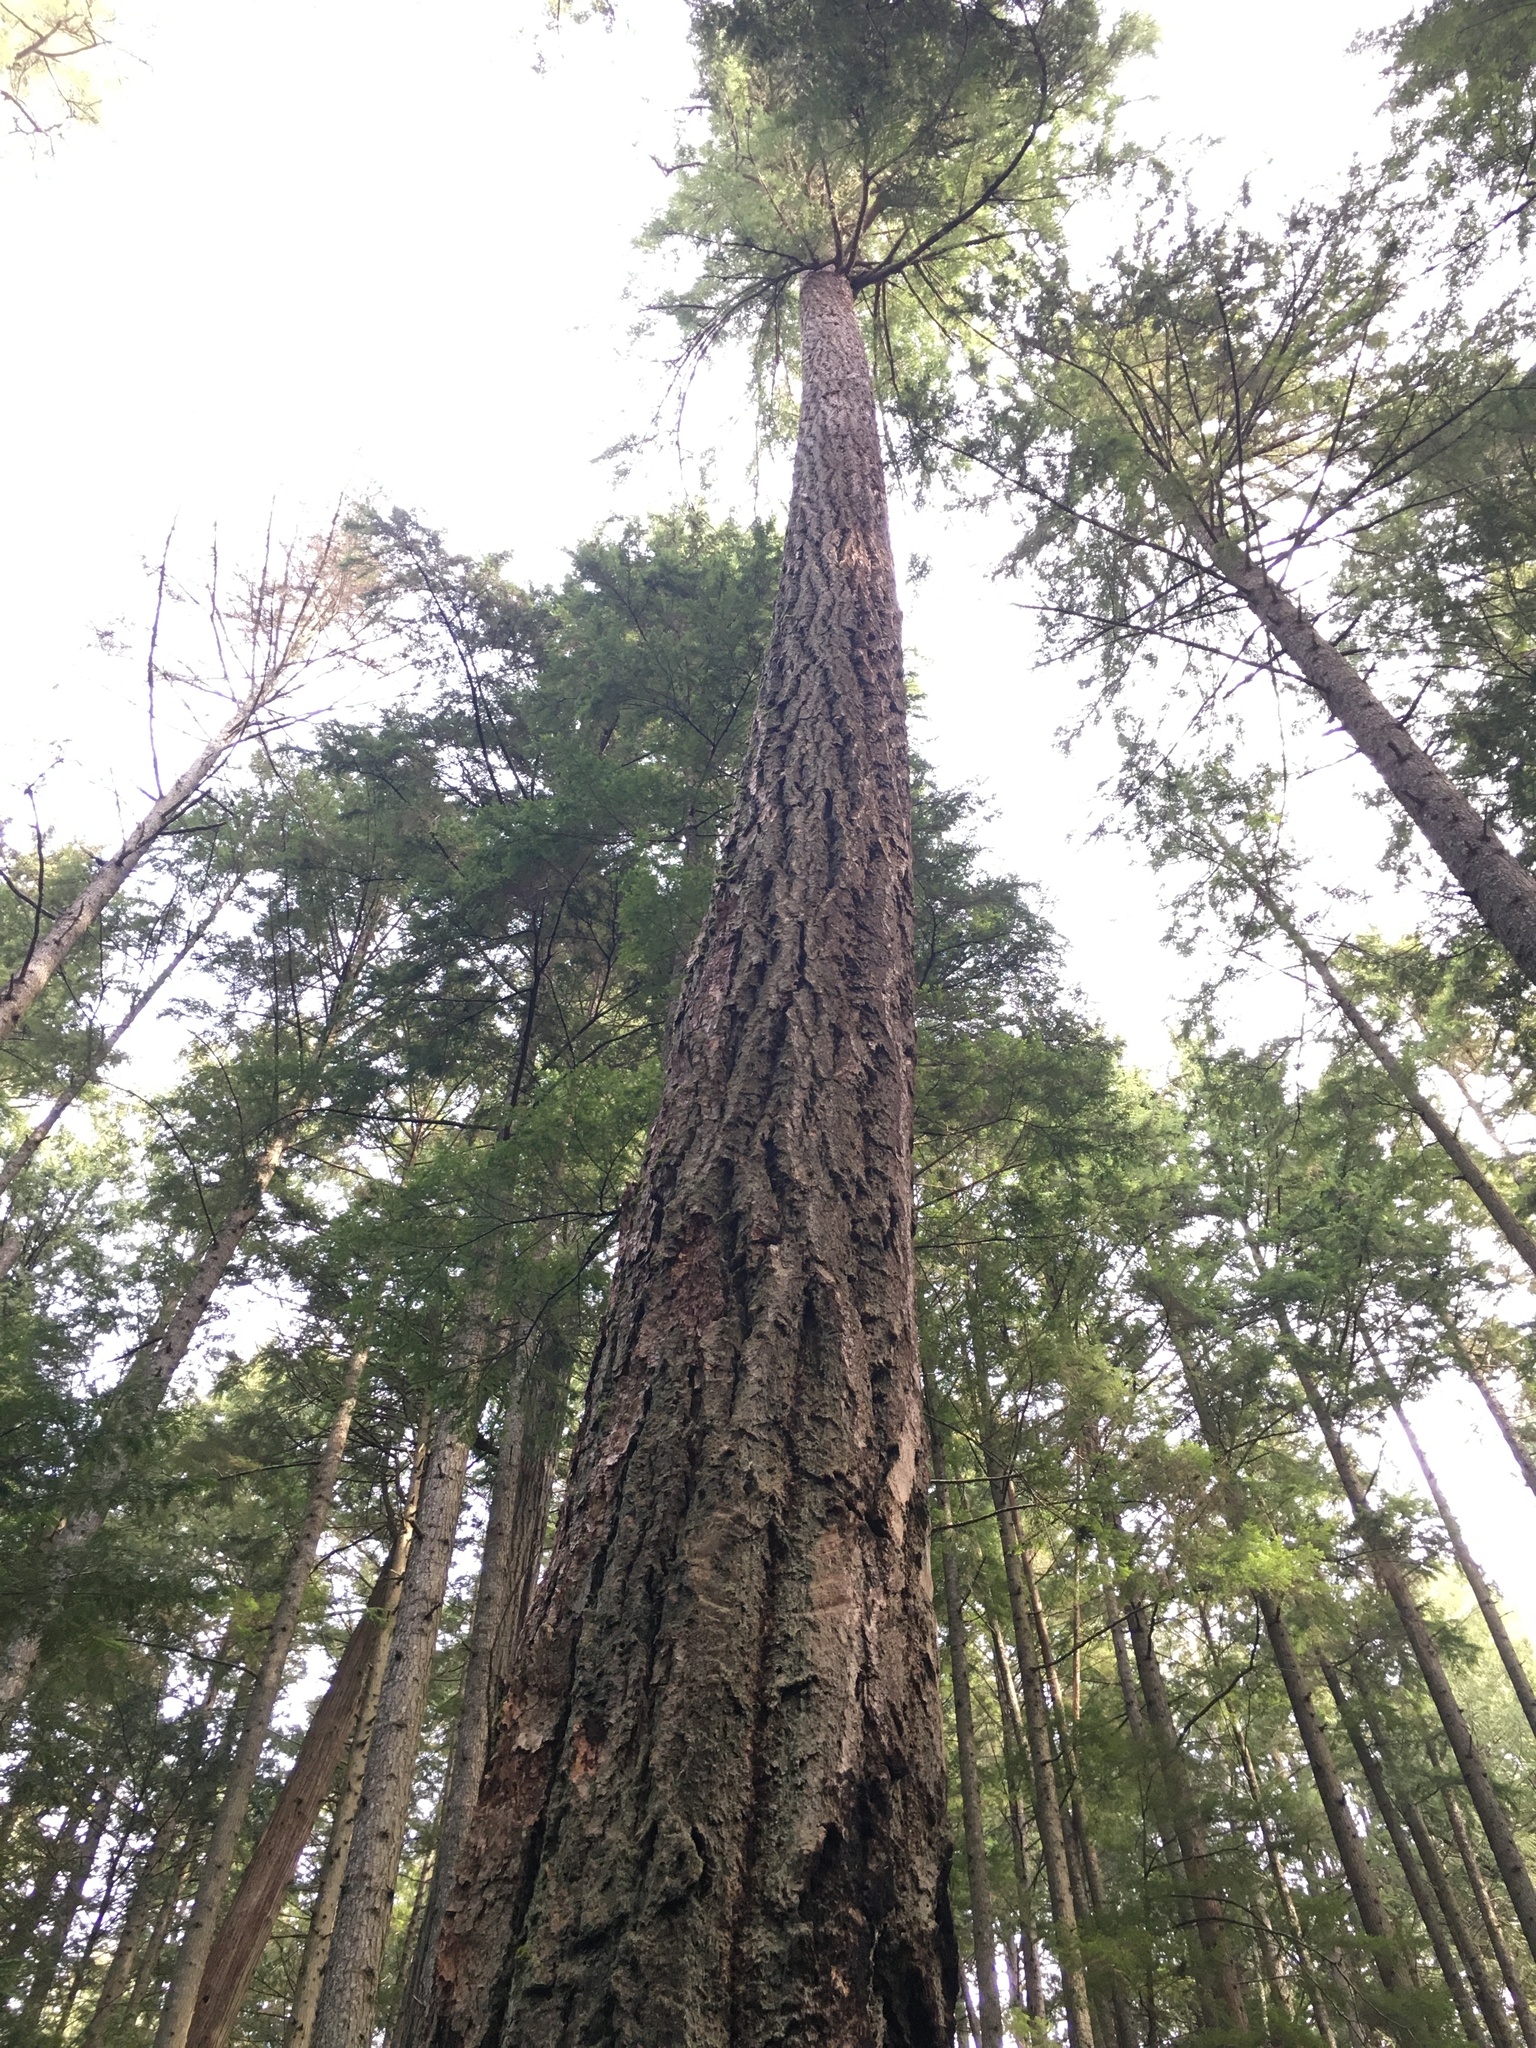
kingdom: Plantae
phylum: Tracheophyta
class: Pinopsida
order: Pinales
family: Pinaceae
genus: Pseudotsuga
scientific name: Pseudotsuga menziesii
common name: Douglas fir
